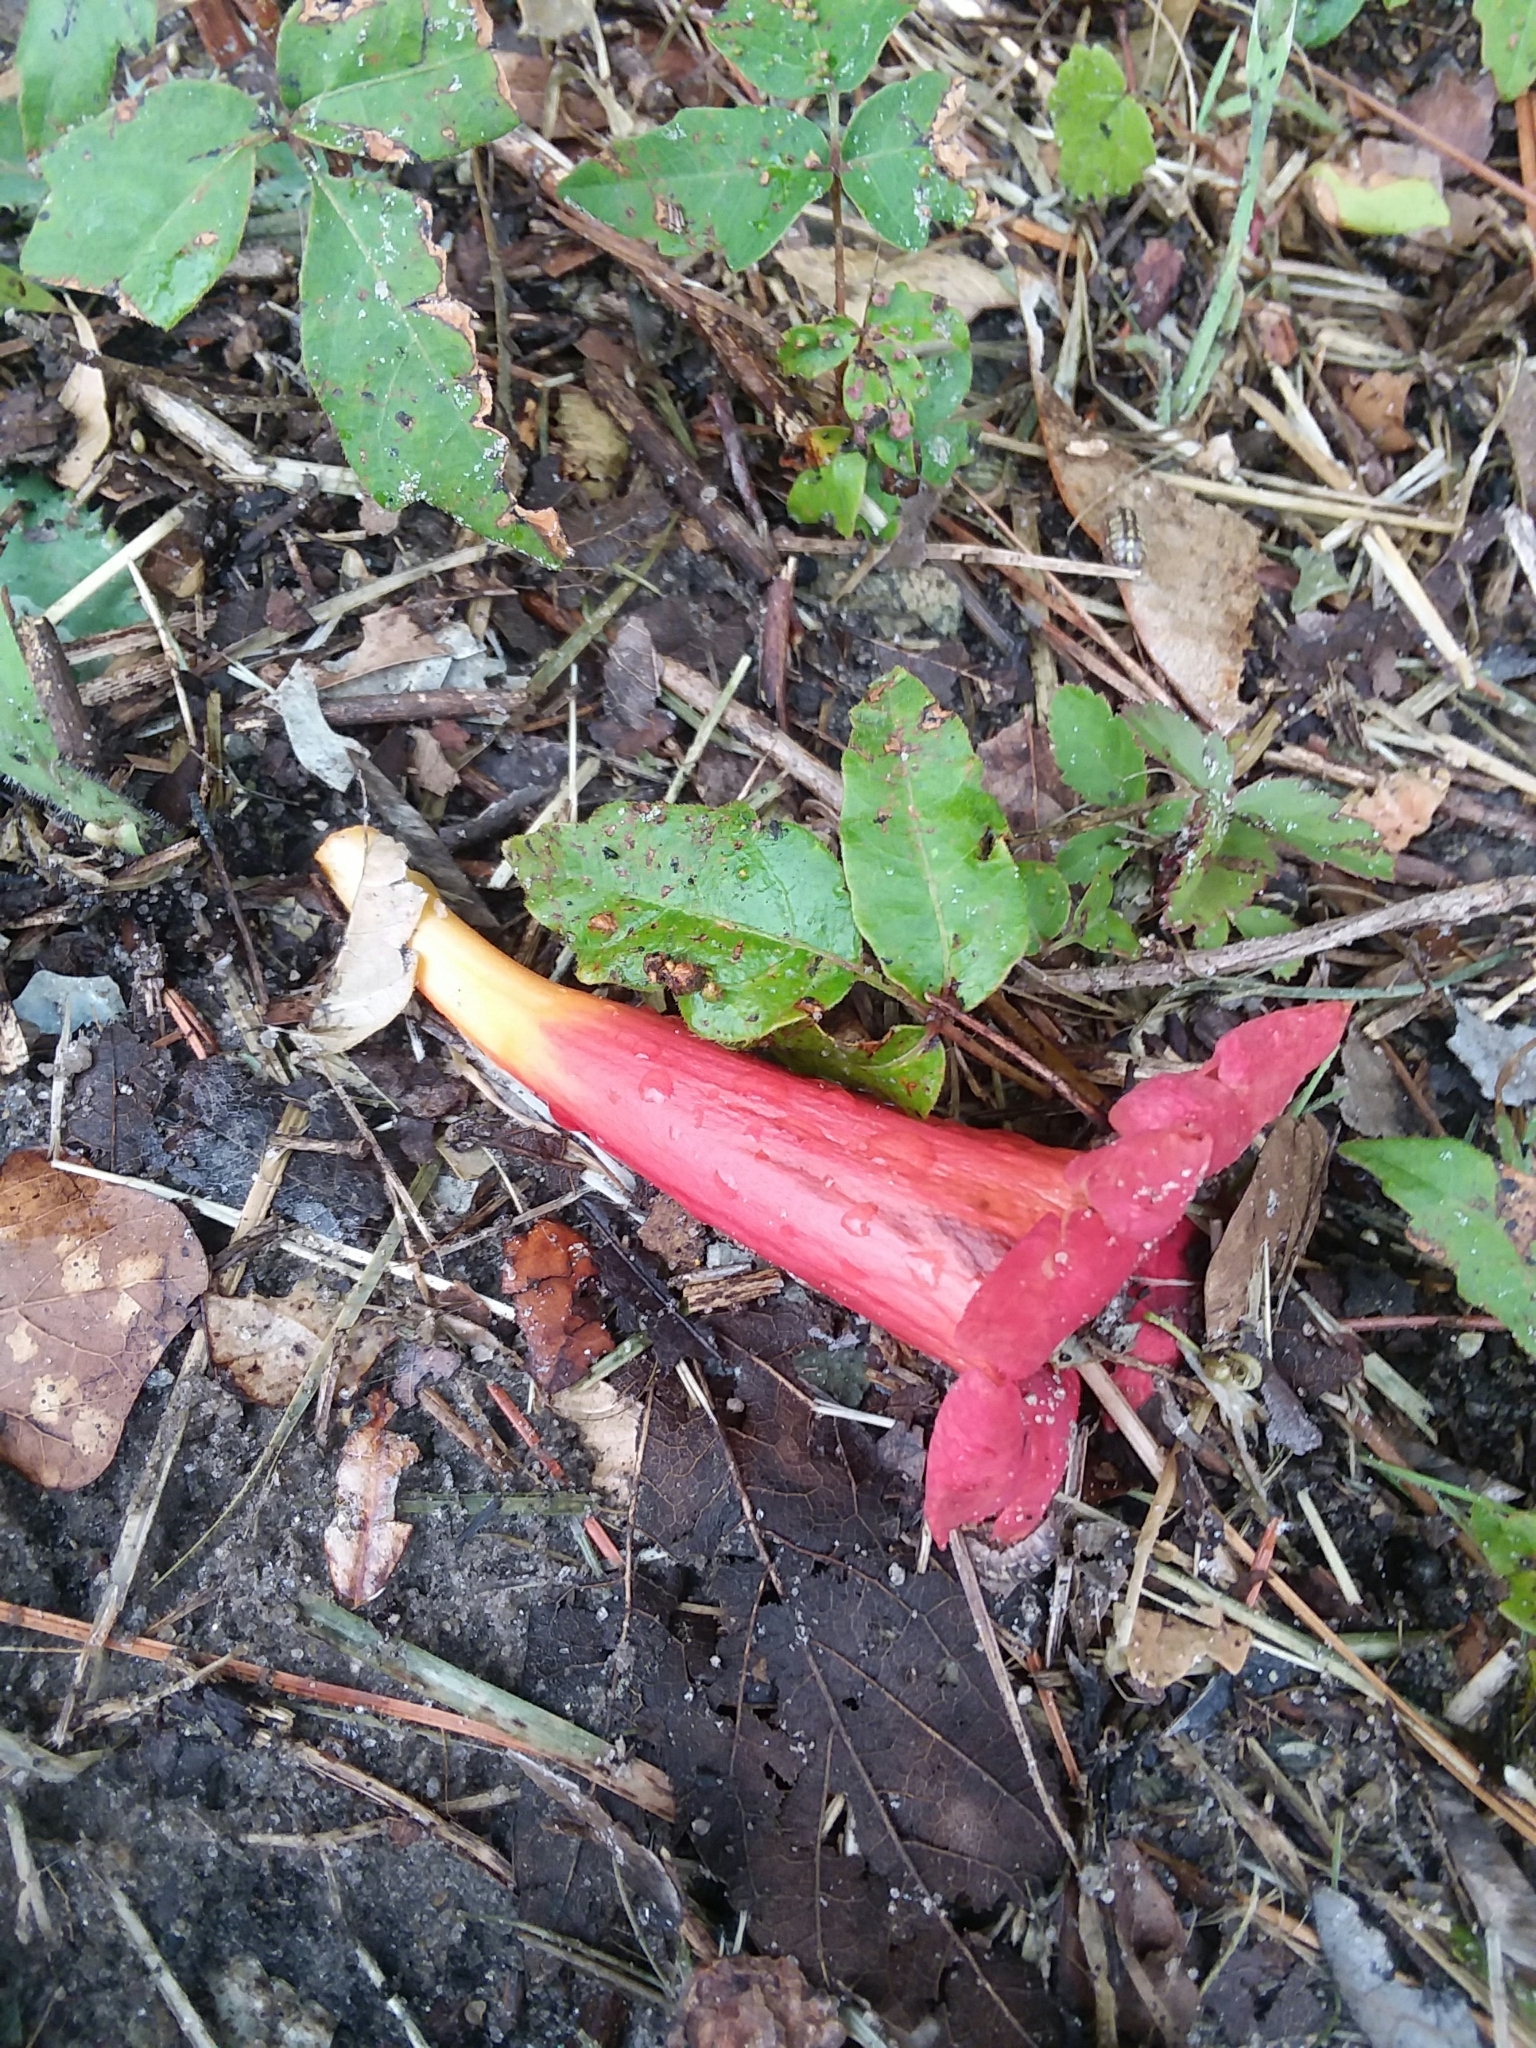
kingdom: Plantae
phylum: Tracheophyta
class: Magnoliopsida
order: Lamiales
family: Bignoniaceae
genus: Campsis
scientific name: Campsis radicans
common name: Trumpet-creeper
